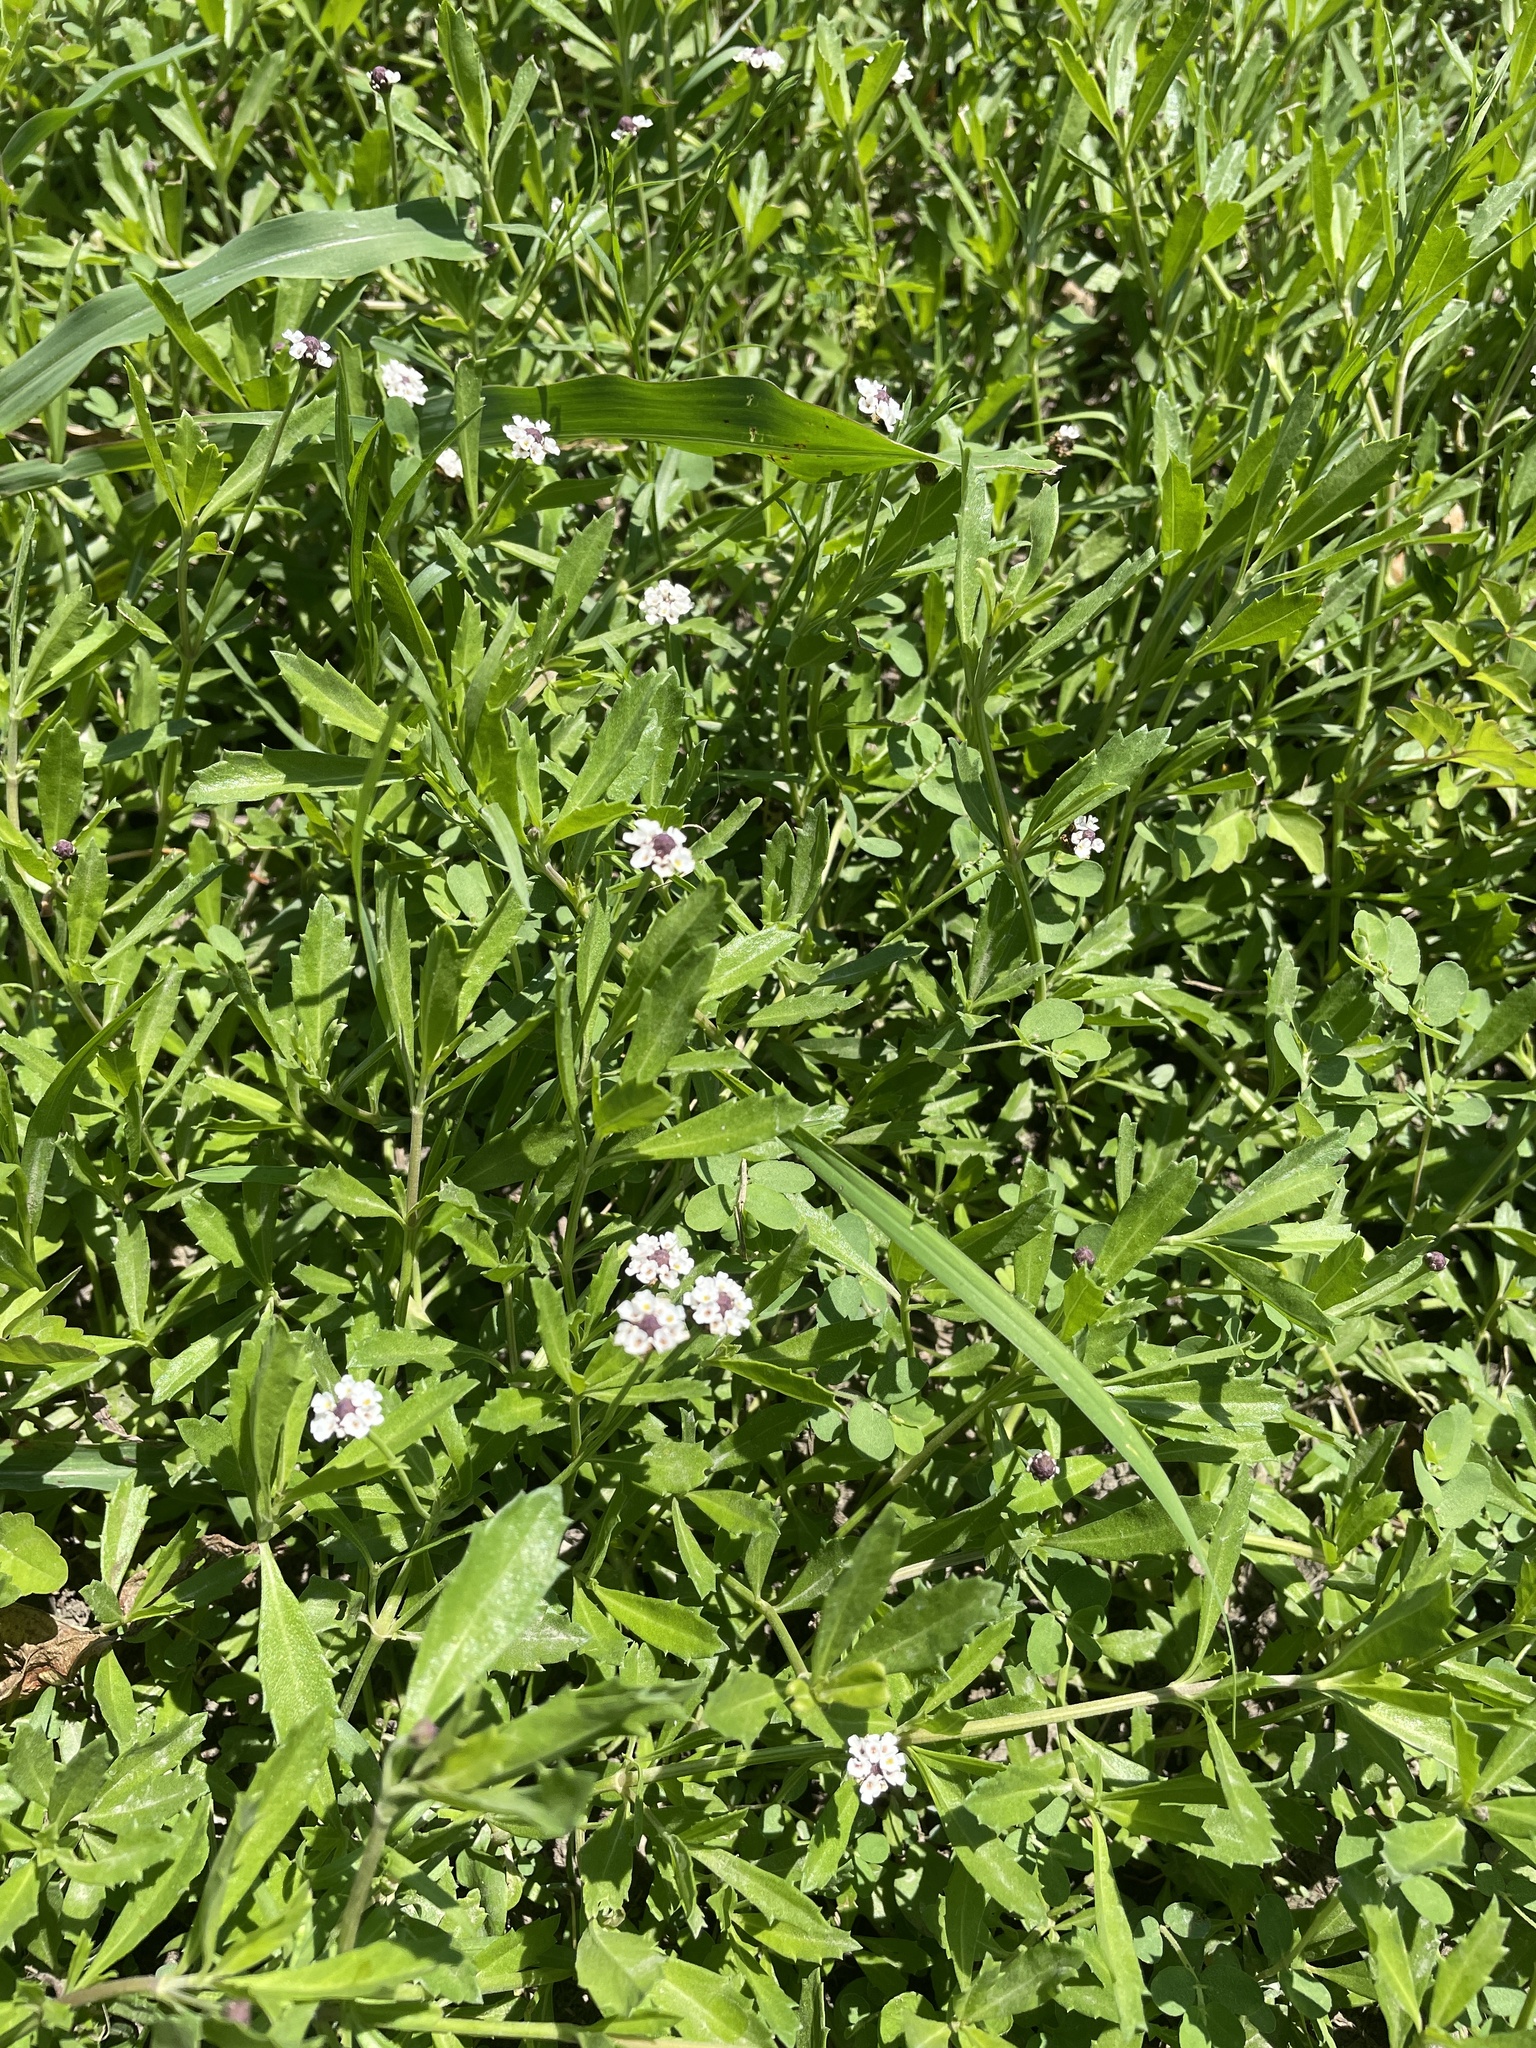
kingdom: Plantae
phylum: Tracheophyta
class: Magnoliopsida
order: Lamiales
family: Verbenaceae
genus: Phyla
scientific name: Phyla nodiflora
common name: Frogfruit
